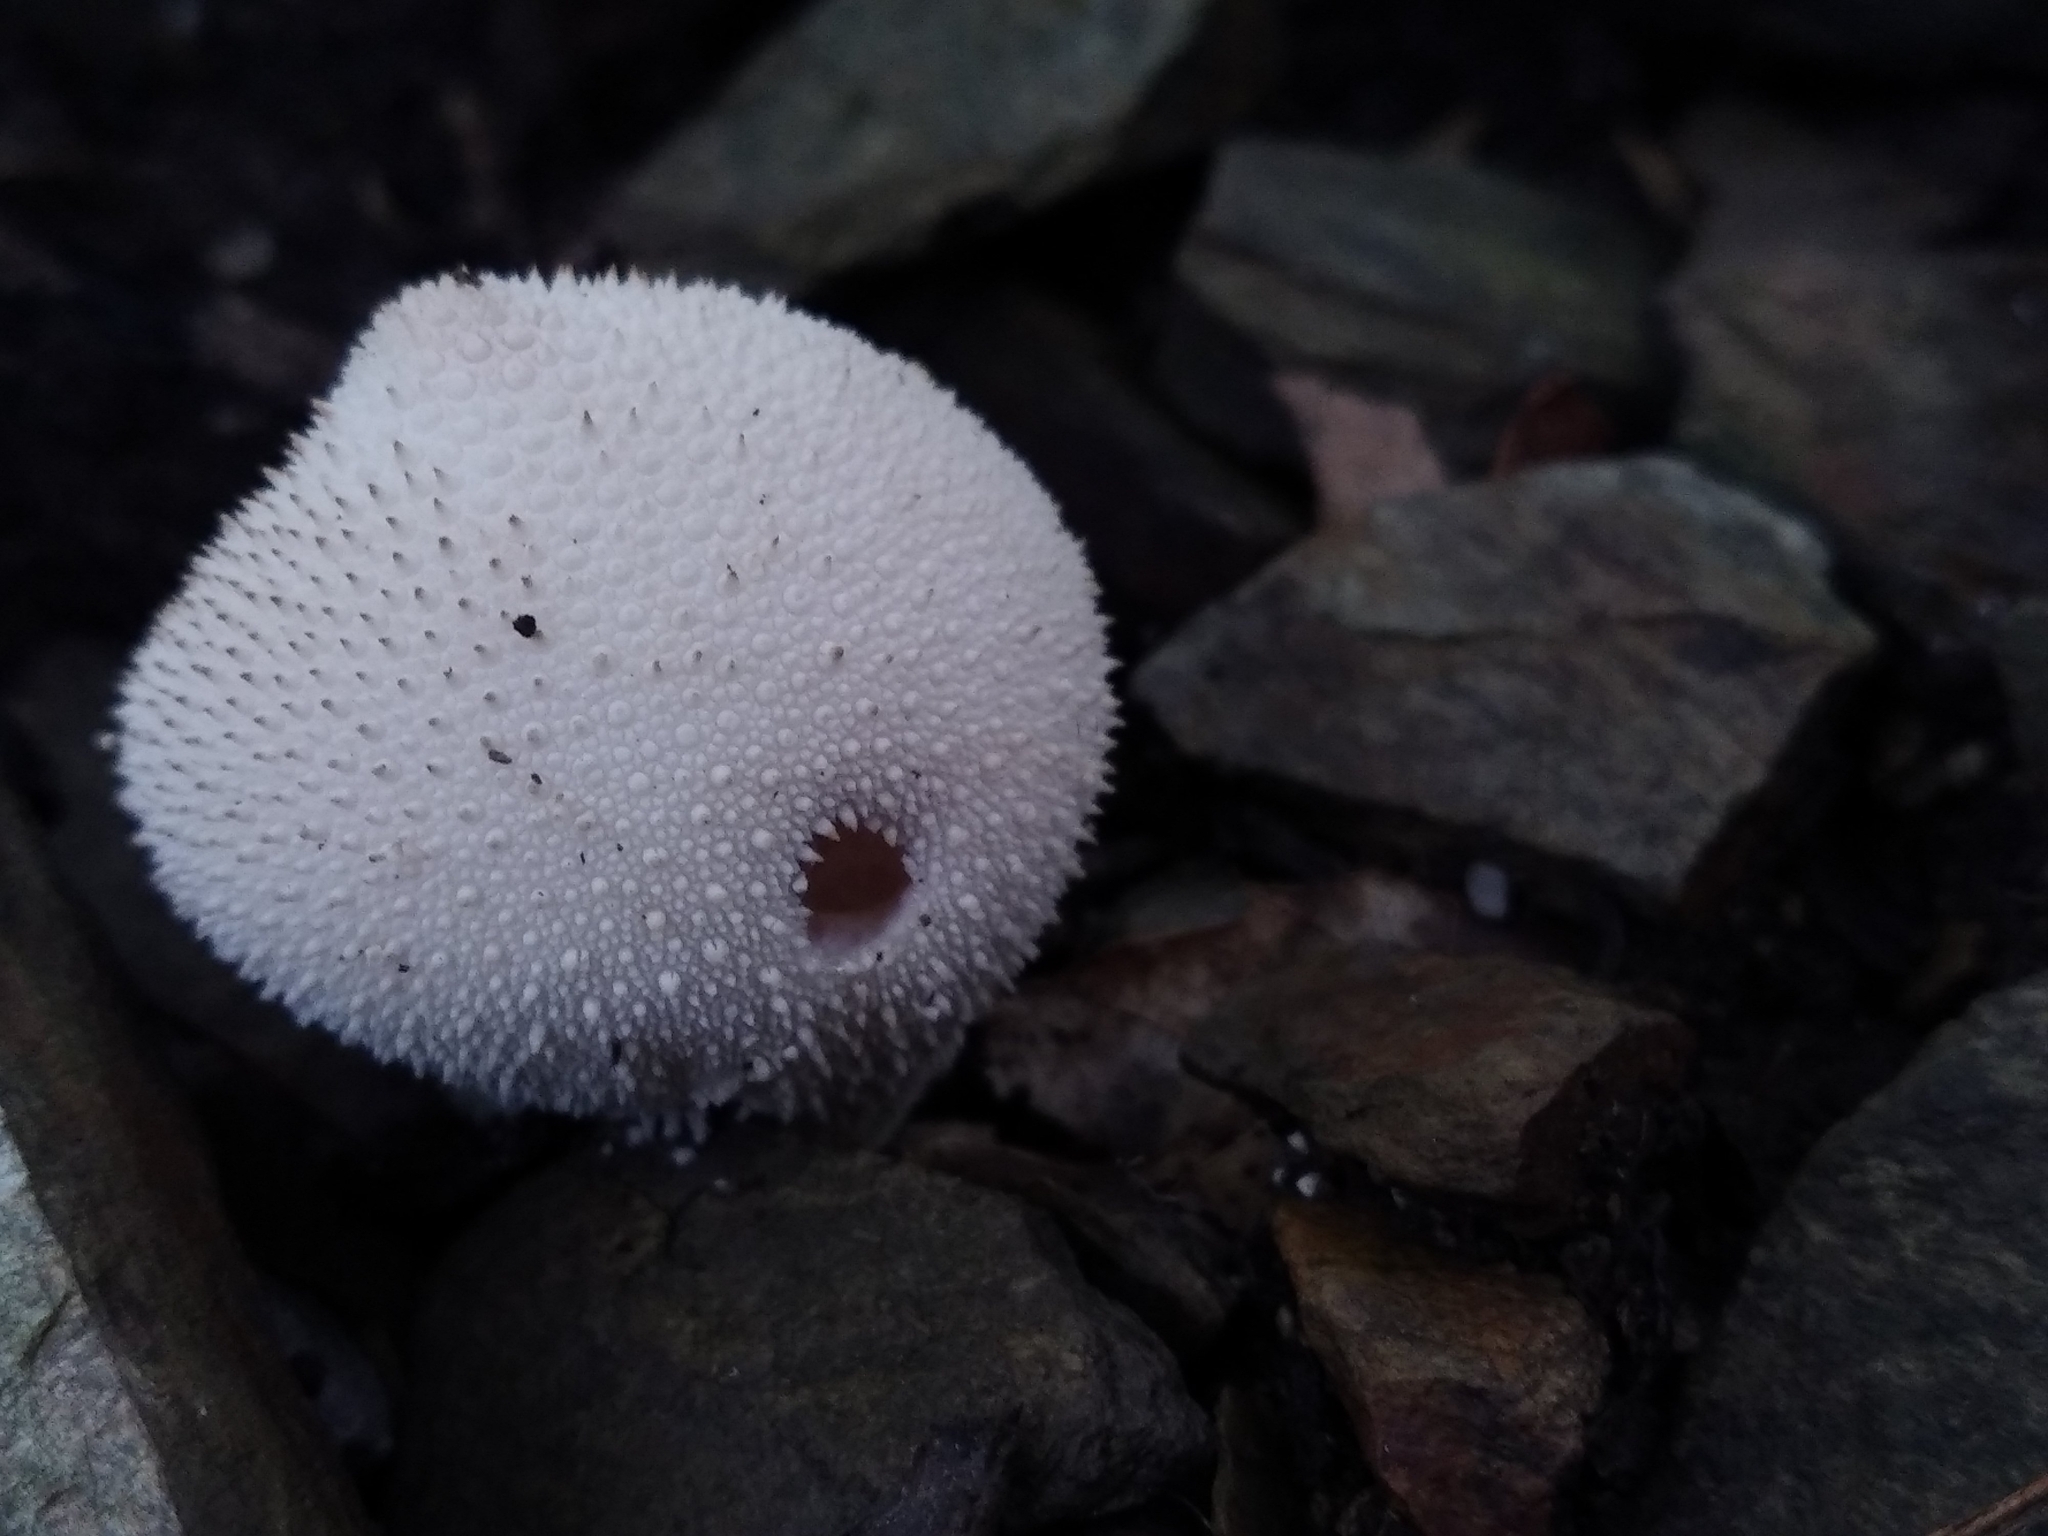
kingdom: Fungi
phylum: Basidiomycota
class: Agaricomycetes
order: Agaricales
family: Lycoperdaceae
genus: Lycoperdon
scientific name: Lycoperdon perlatum
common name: Common puffball
